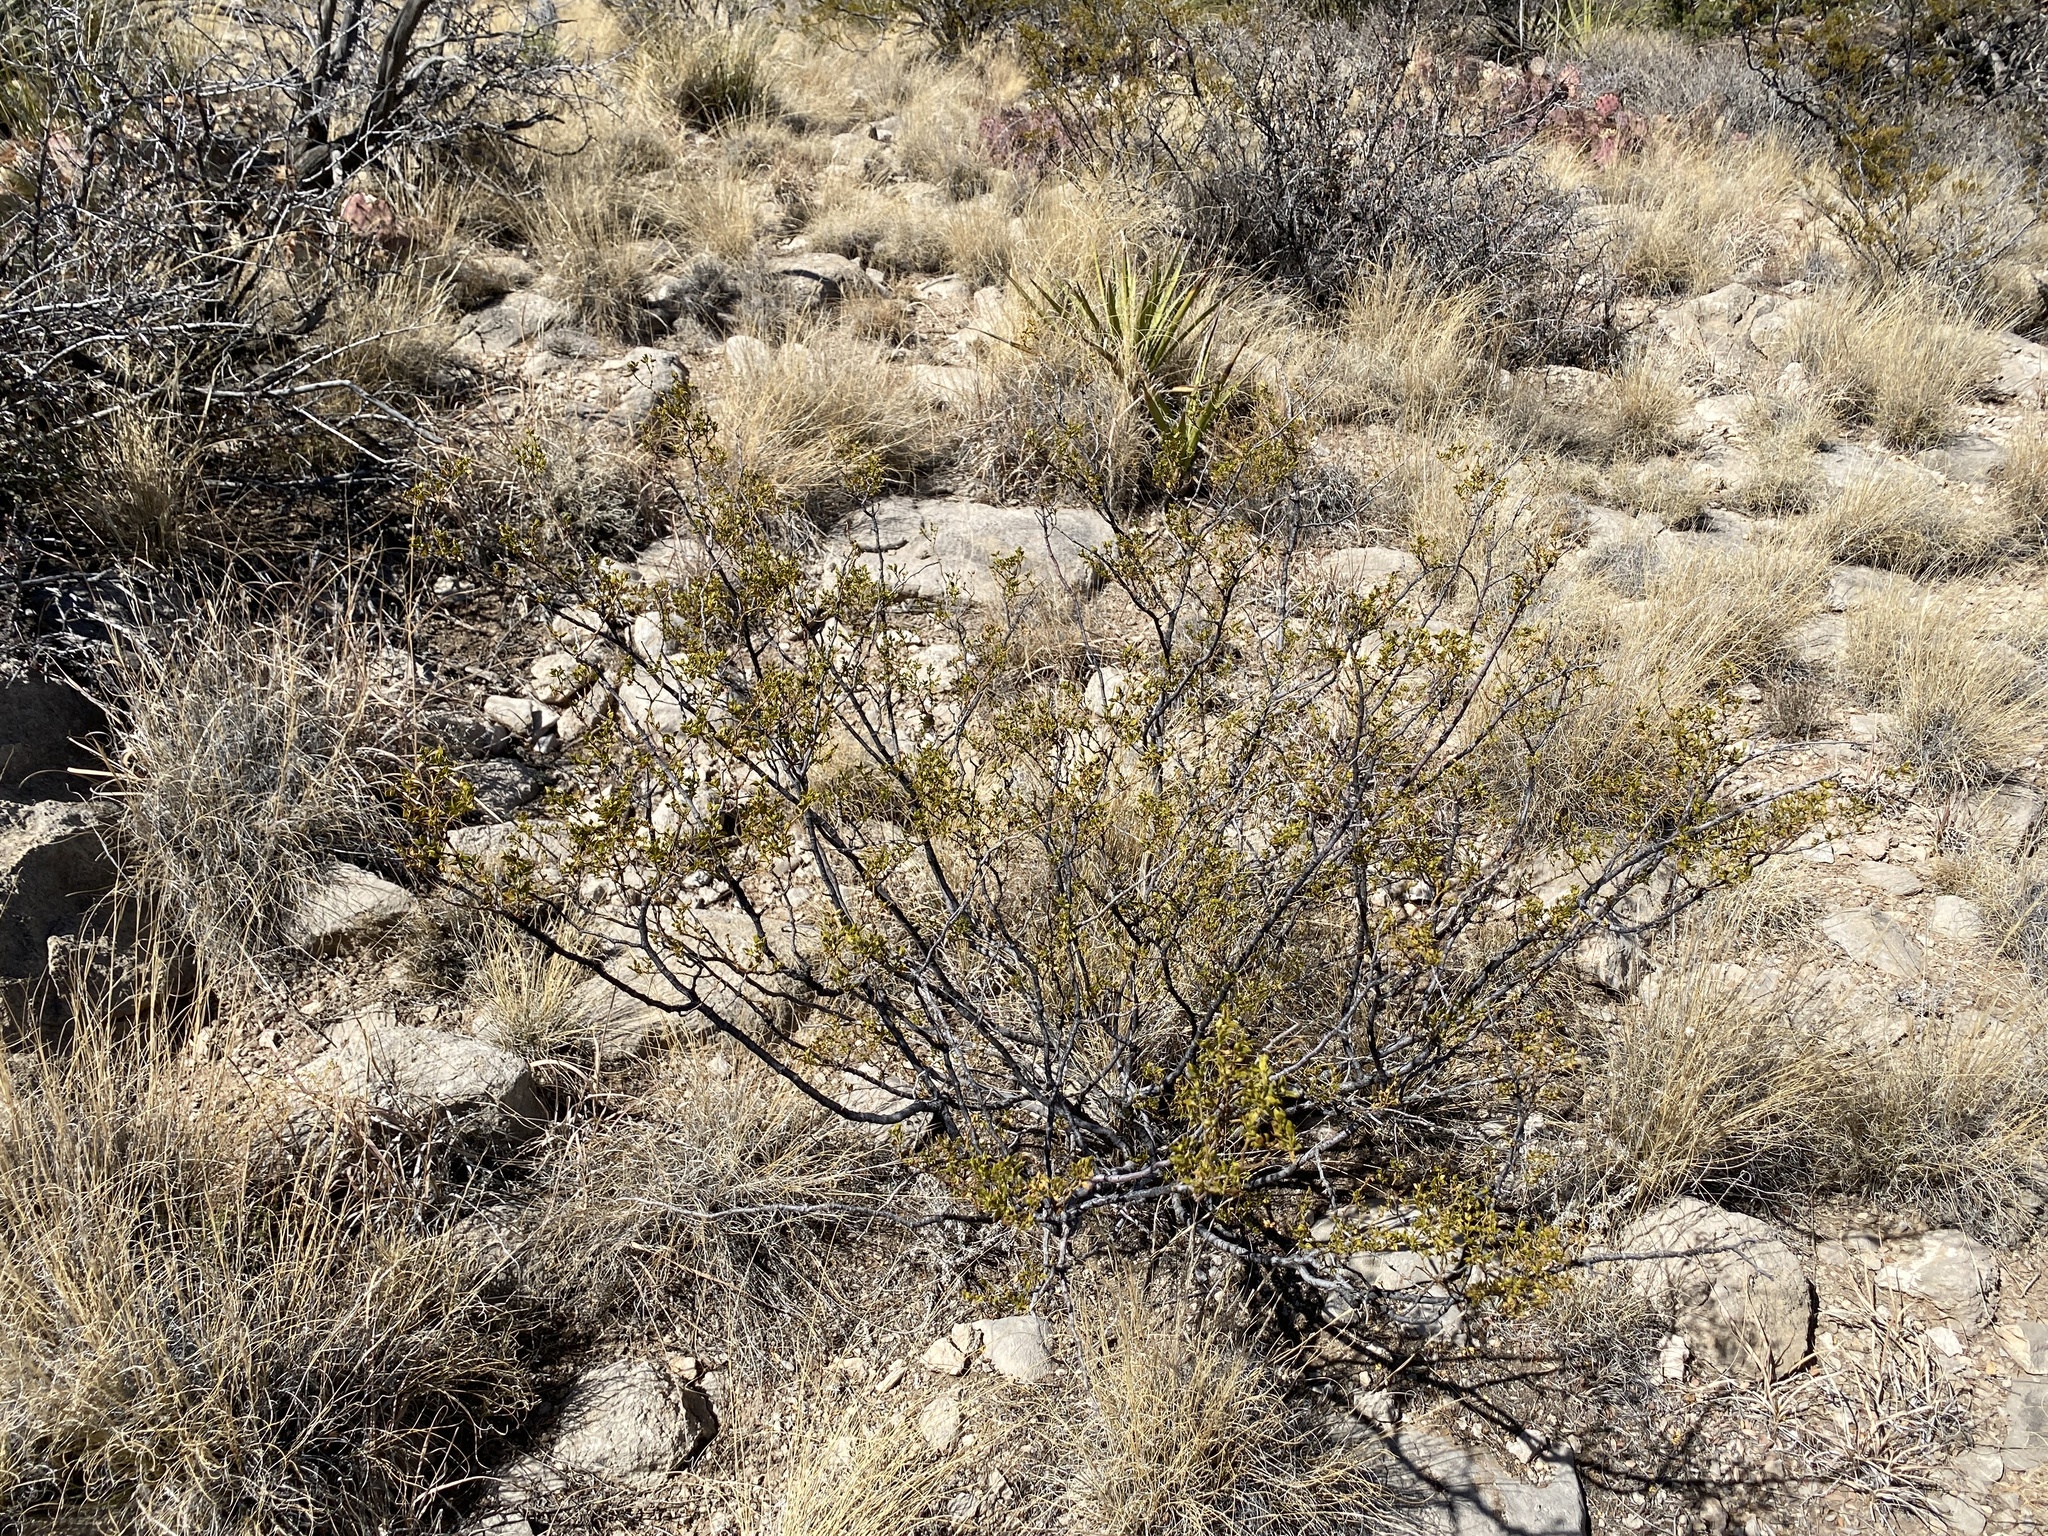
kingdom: Plantae
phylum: Tracheophyta
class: Magnoliopsida
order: Zygophyllales
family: Zygophyllaceae
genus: Larrea
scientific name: Larrea tridentata
